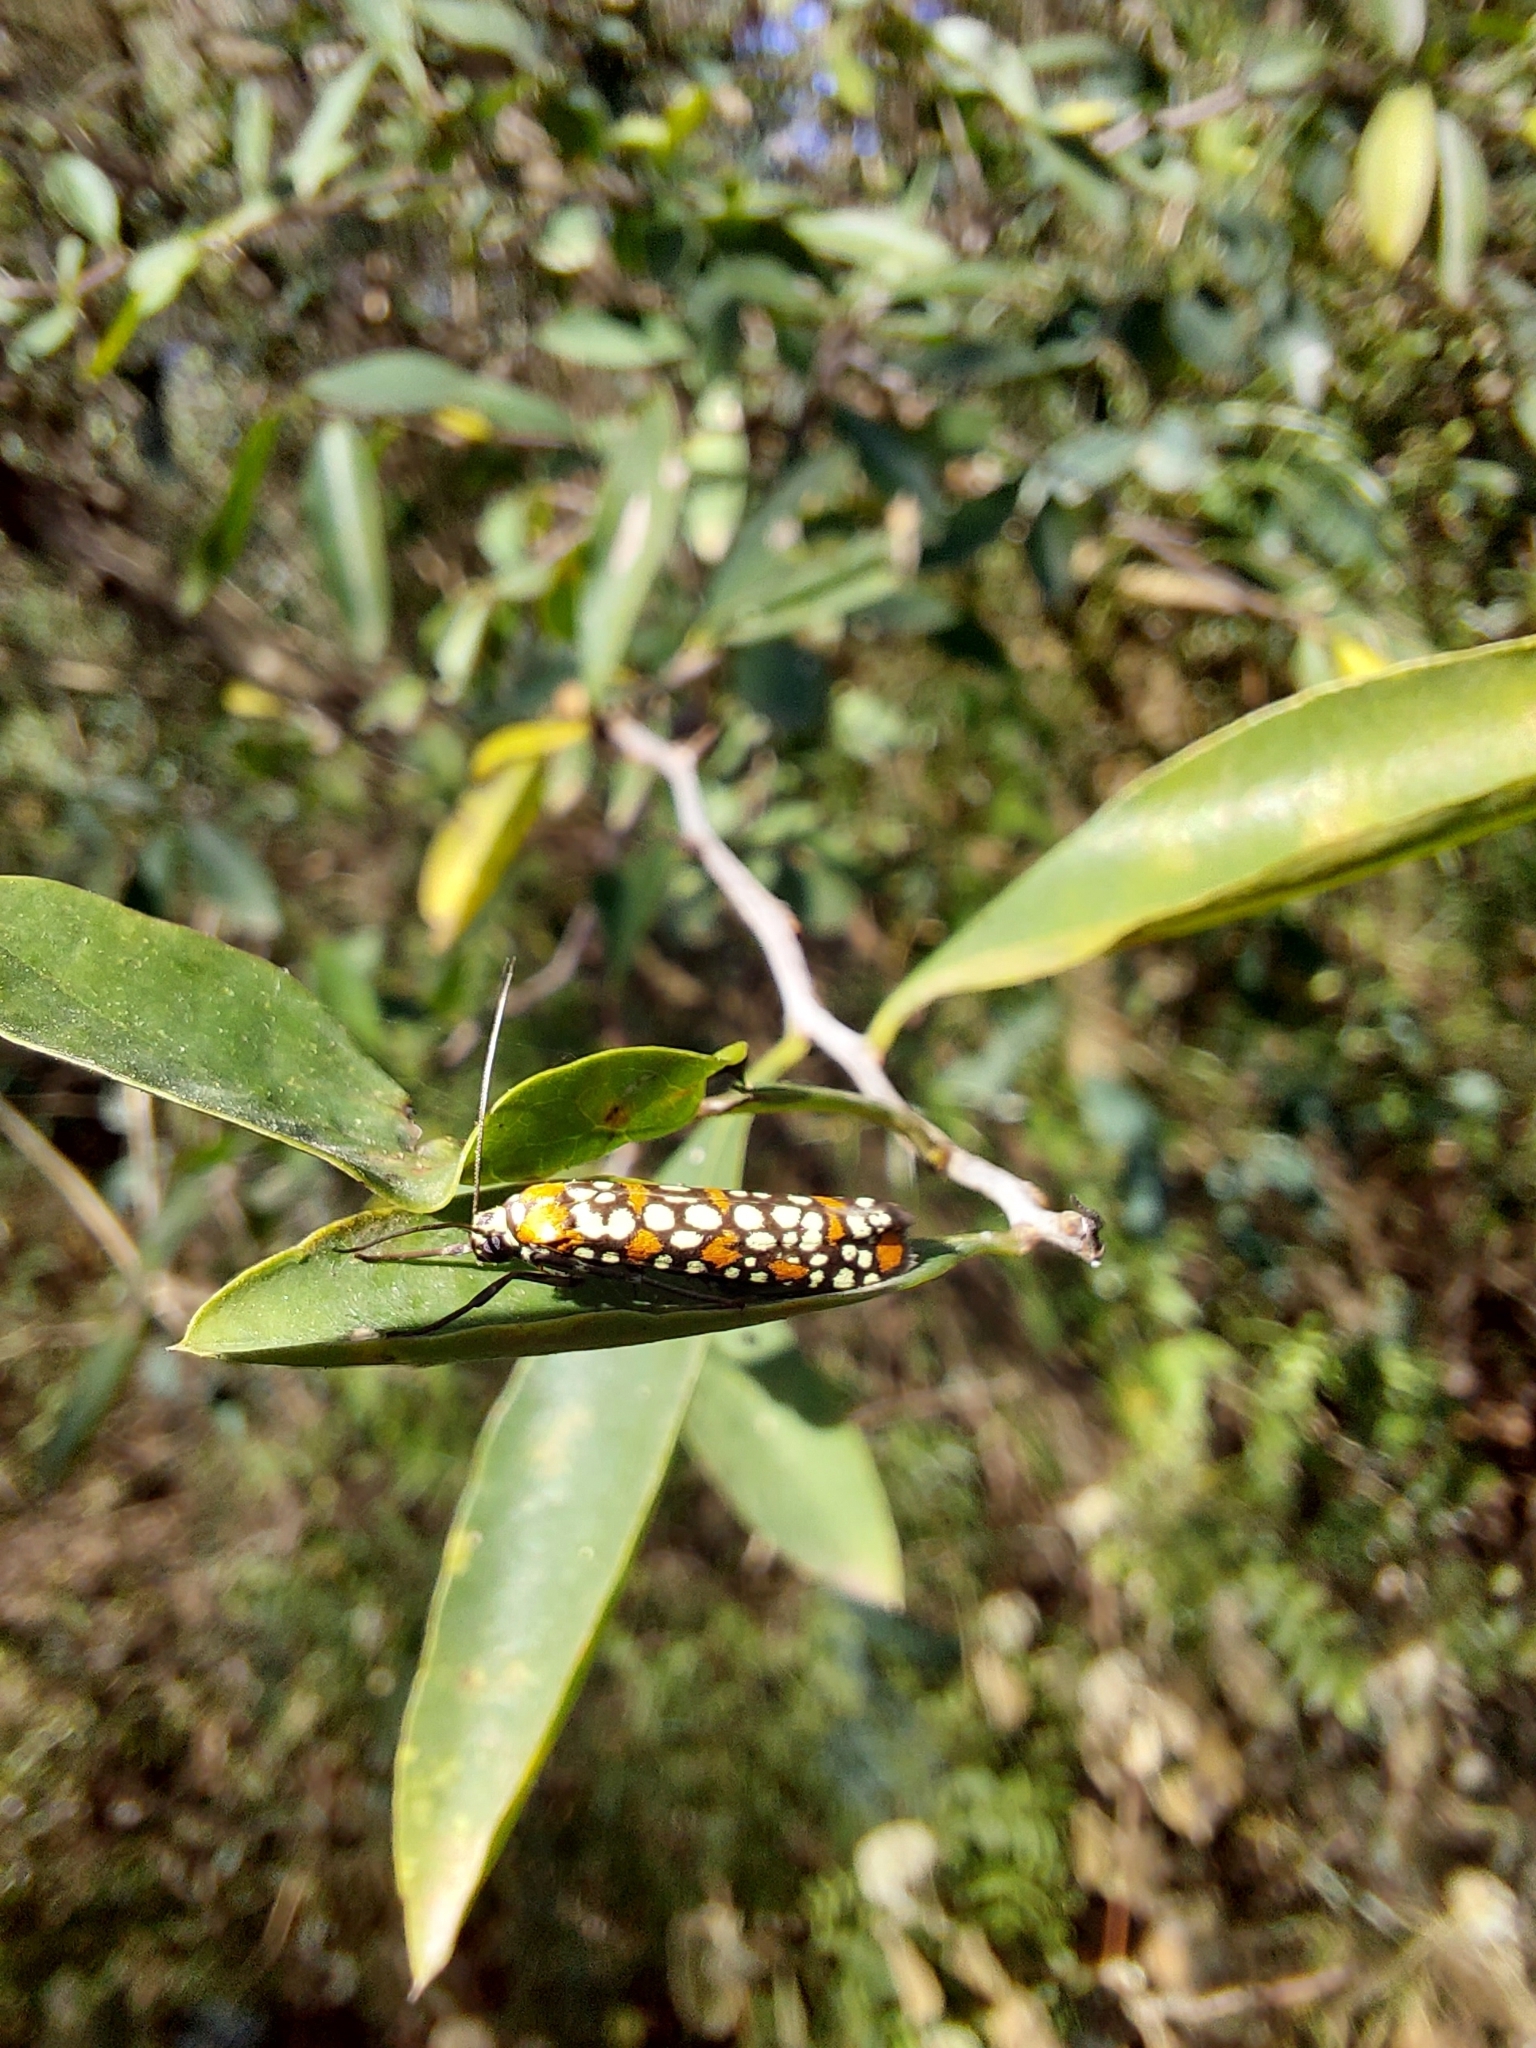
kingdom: Animalia
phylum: Arthropoda
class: Insecta
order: Lepidoptera
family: Attevidae
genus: Atteva
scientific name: Atteva punctella
